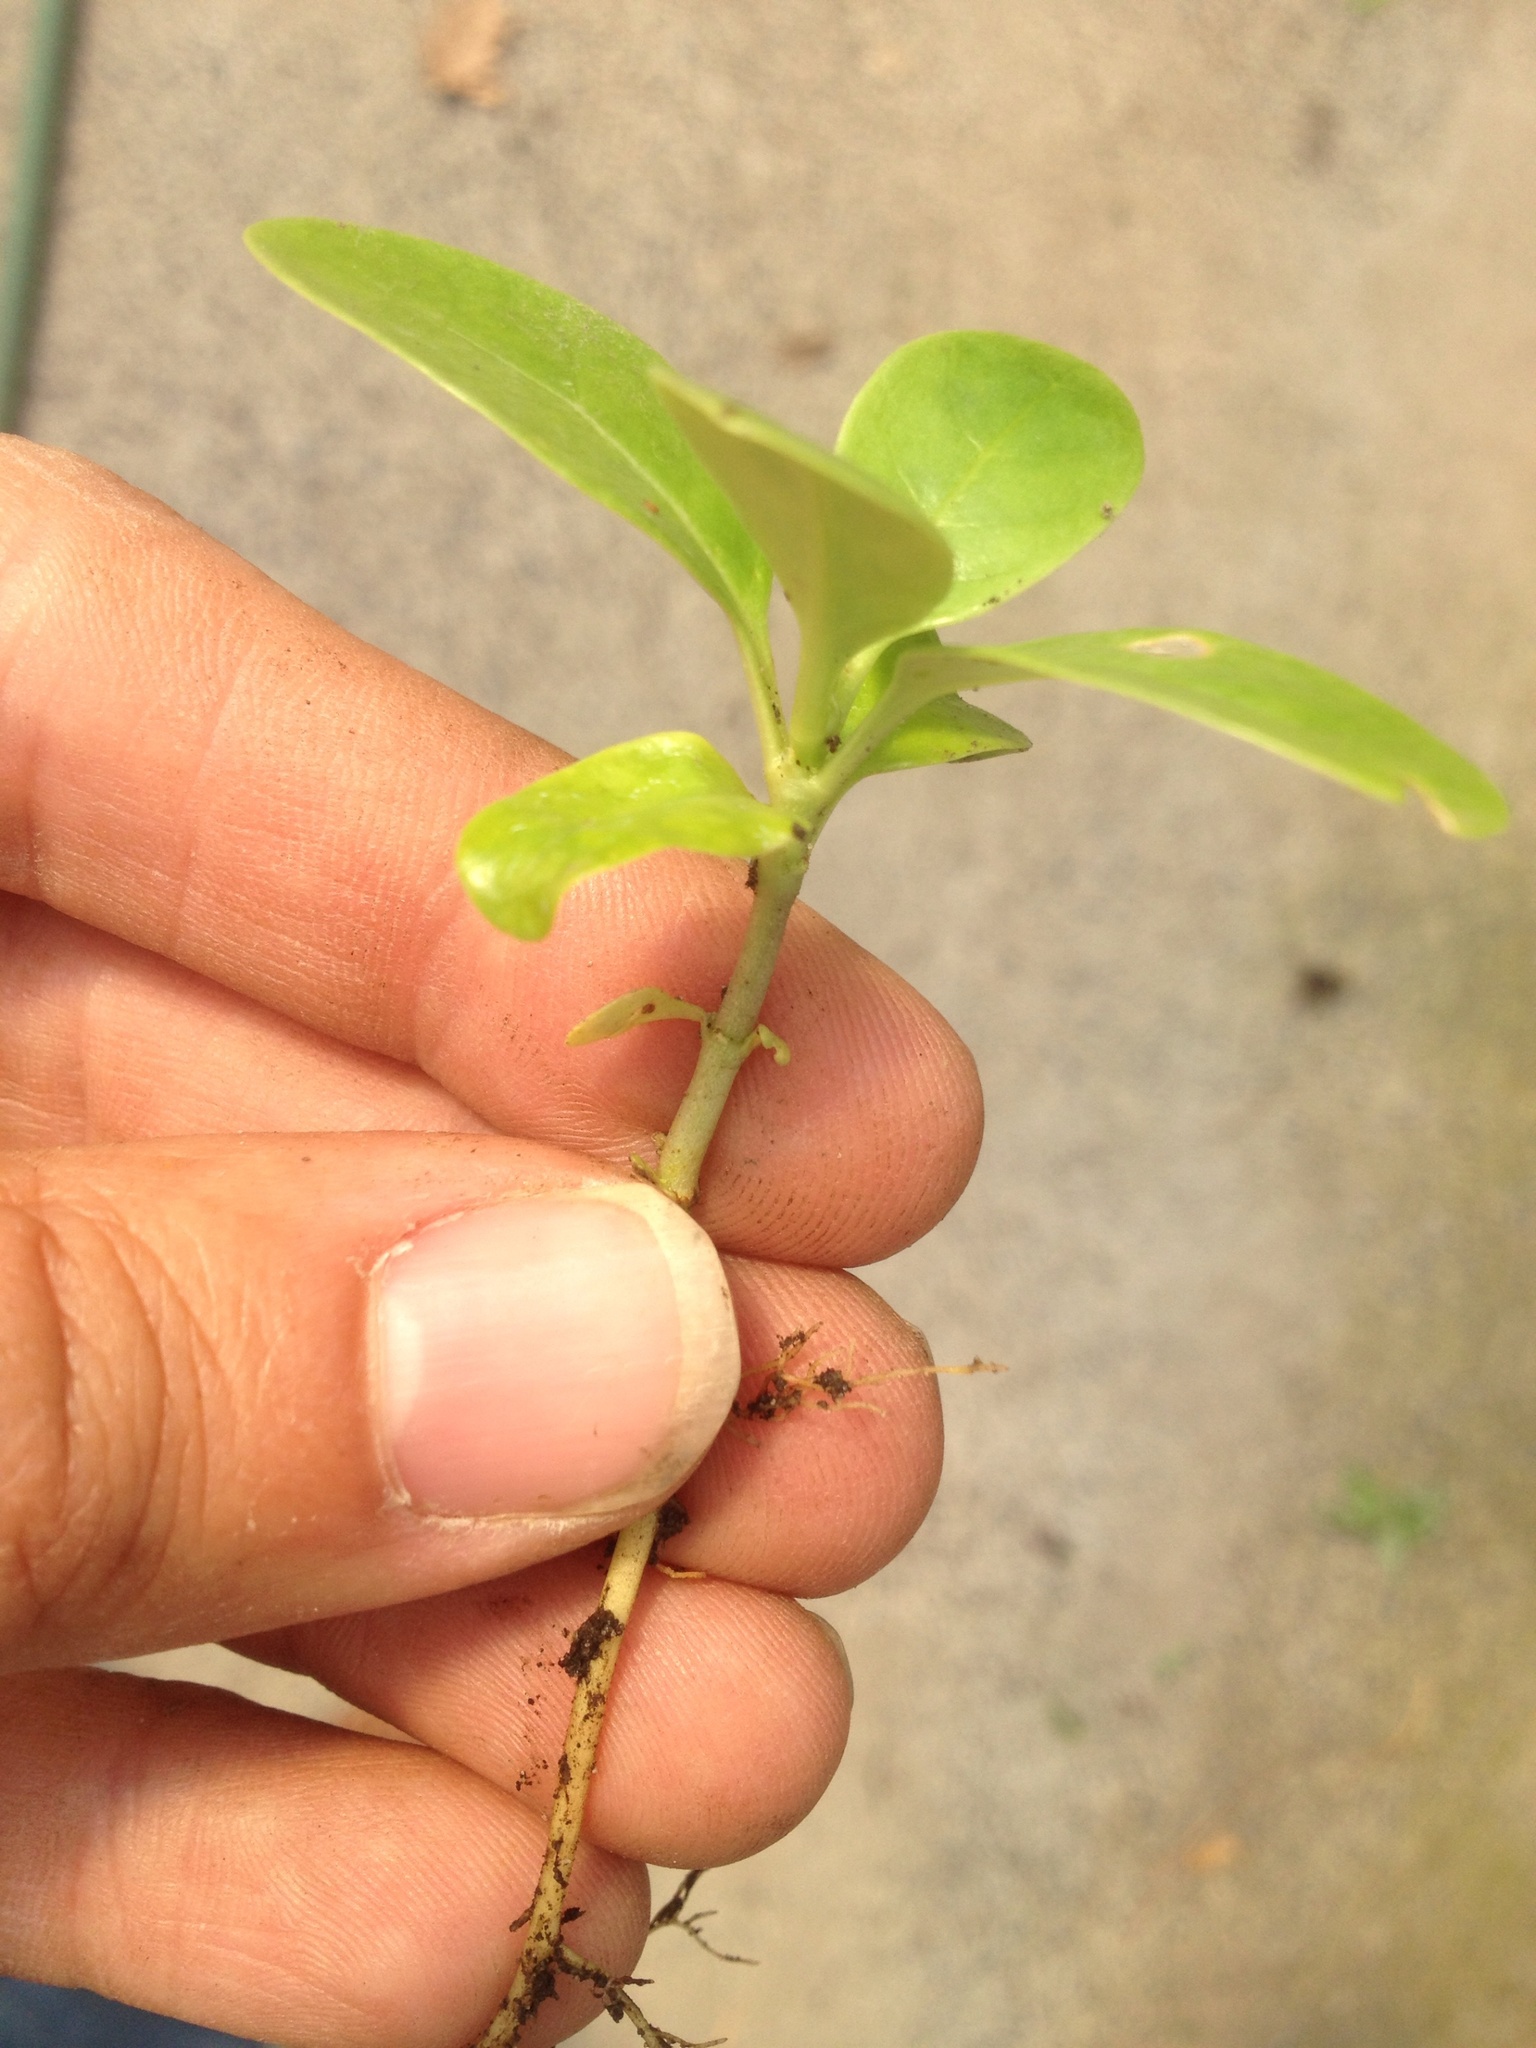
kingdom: Plantae
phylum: Tracheophyta
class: Magnoliopsida
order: Gentianales
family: Rubiaceae
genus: Coprosma
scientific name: Coprosma repens
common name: Tree bedstraw
